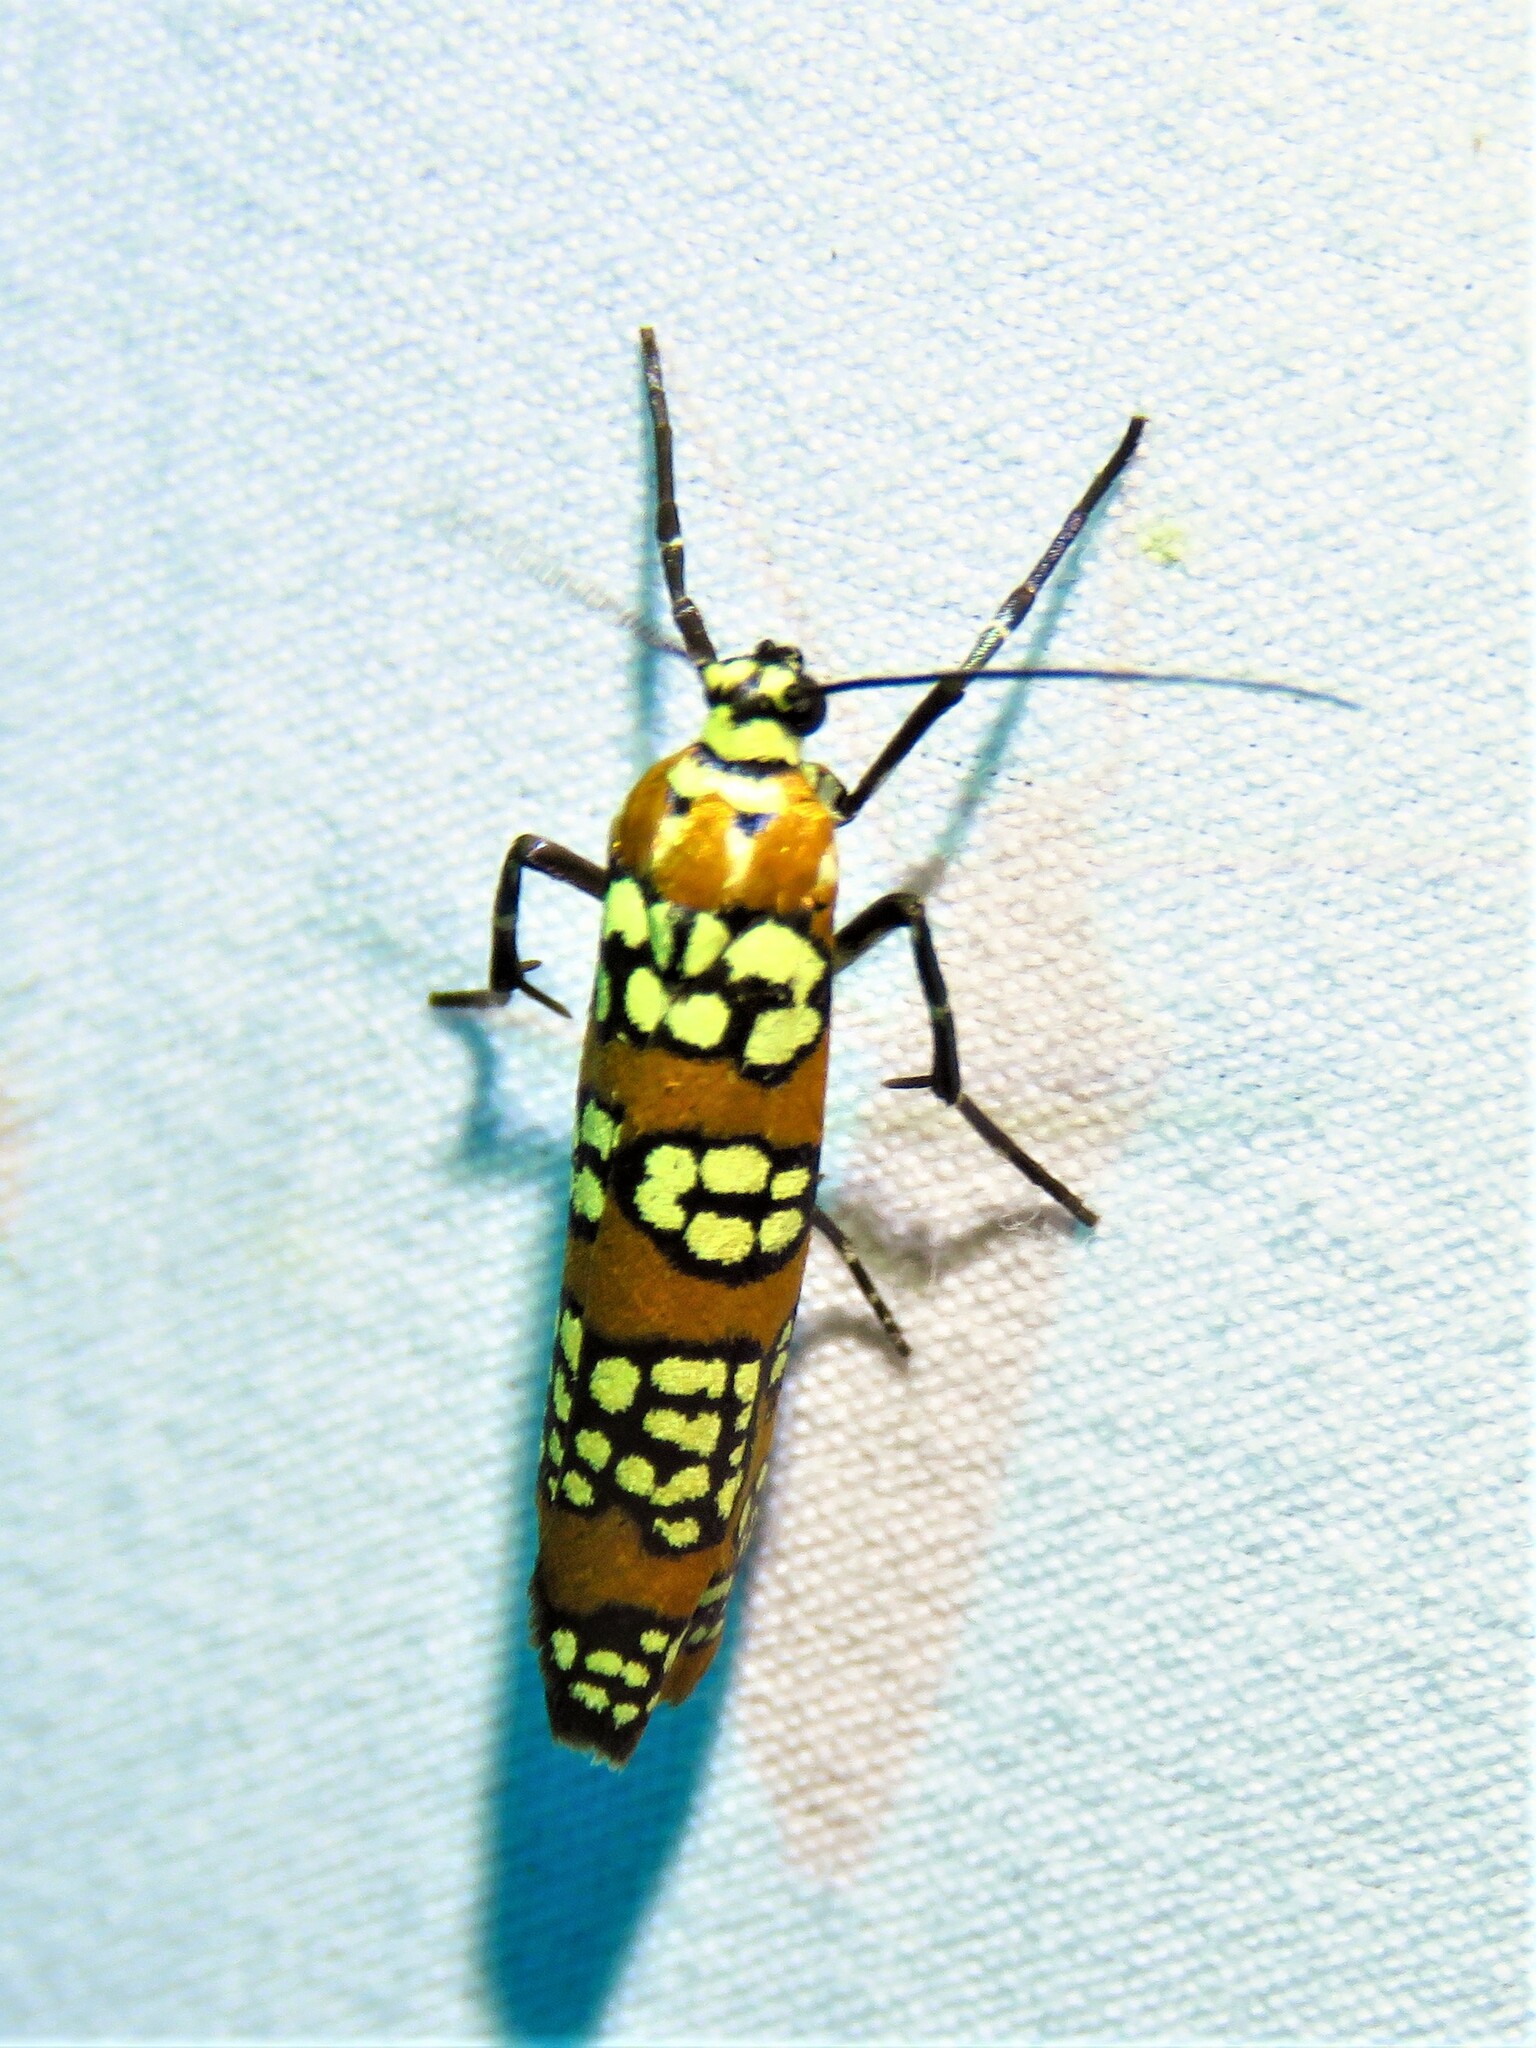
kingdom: Animalia
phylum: Arthropoda
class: Insecta
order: Lepidoptera
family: Attevidae
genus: Atteva
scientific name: Atteva punctella
